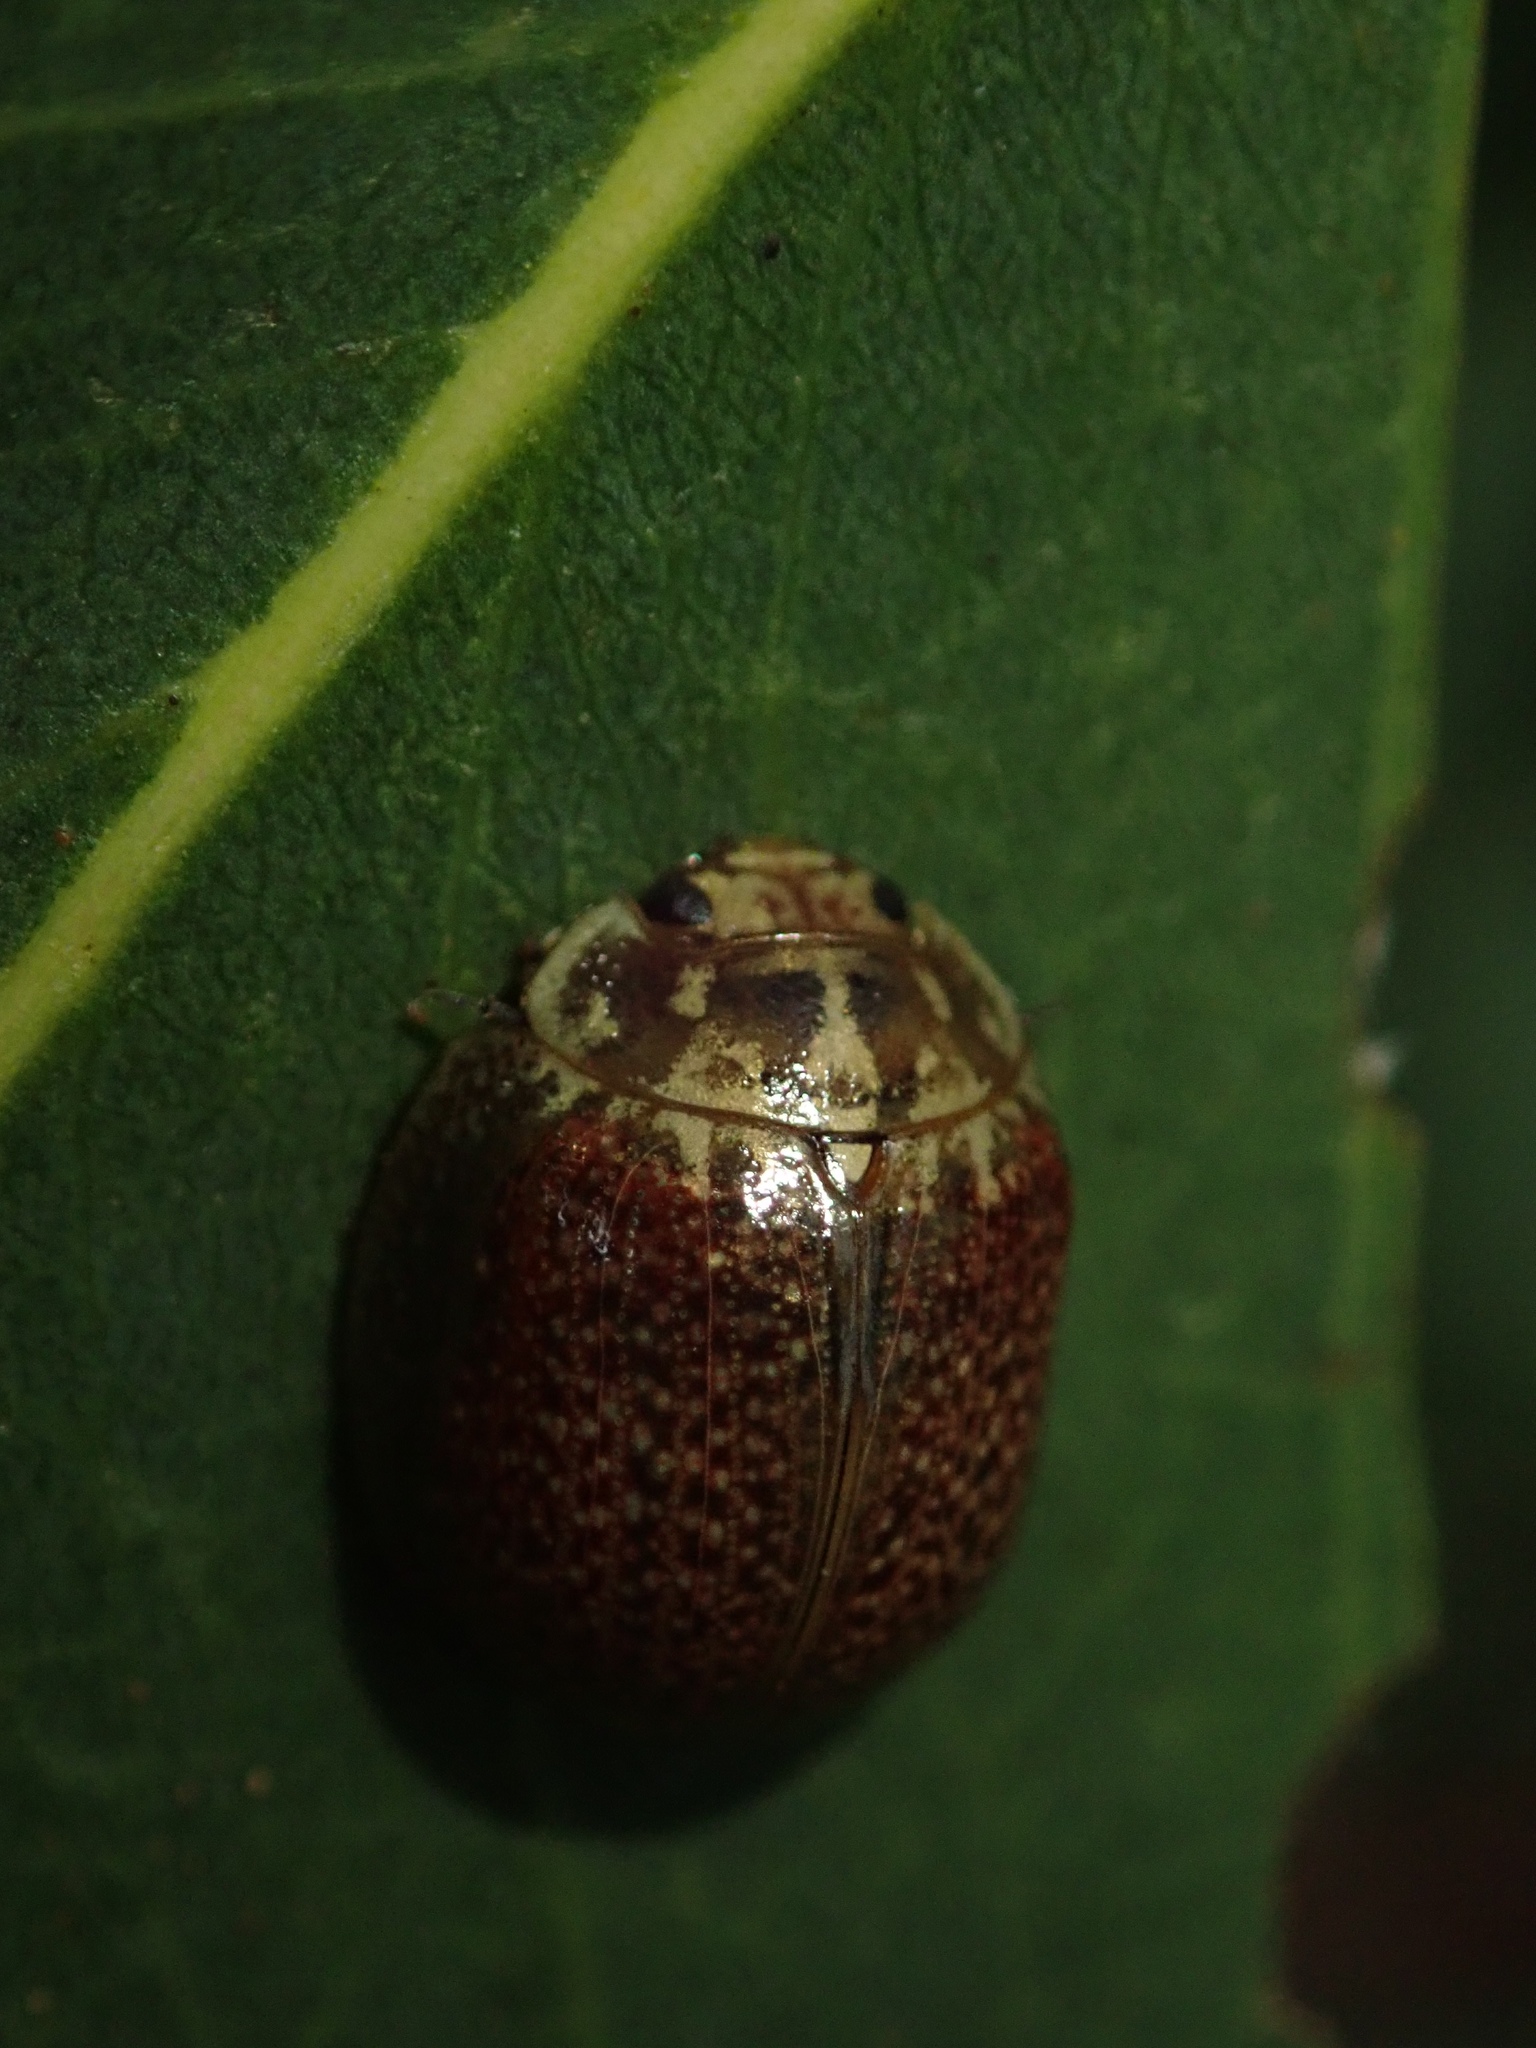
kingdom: Animalia
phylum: Arthropoda
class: Insecta
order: Coleoptera
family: Chrysomelidae
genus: Paropsisterna
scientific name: Paropsisterna cloelia
